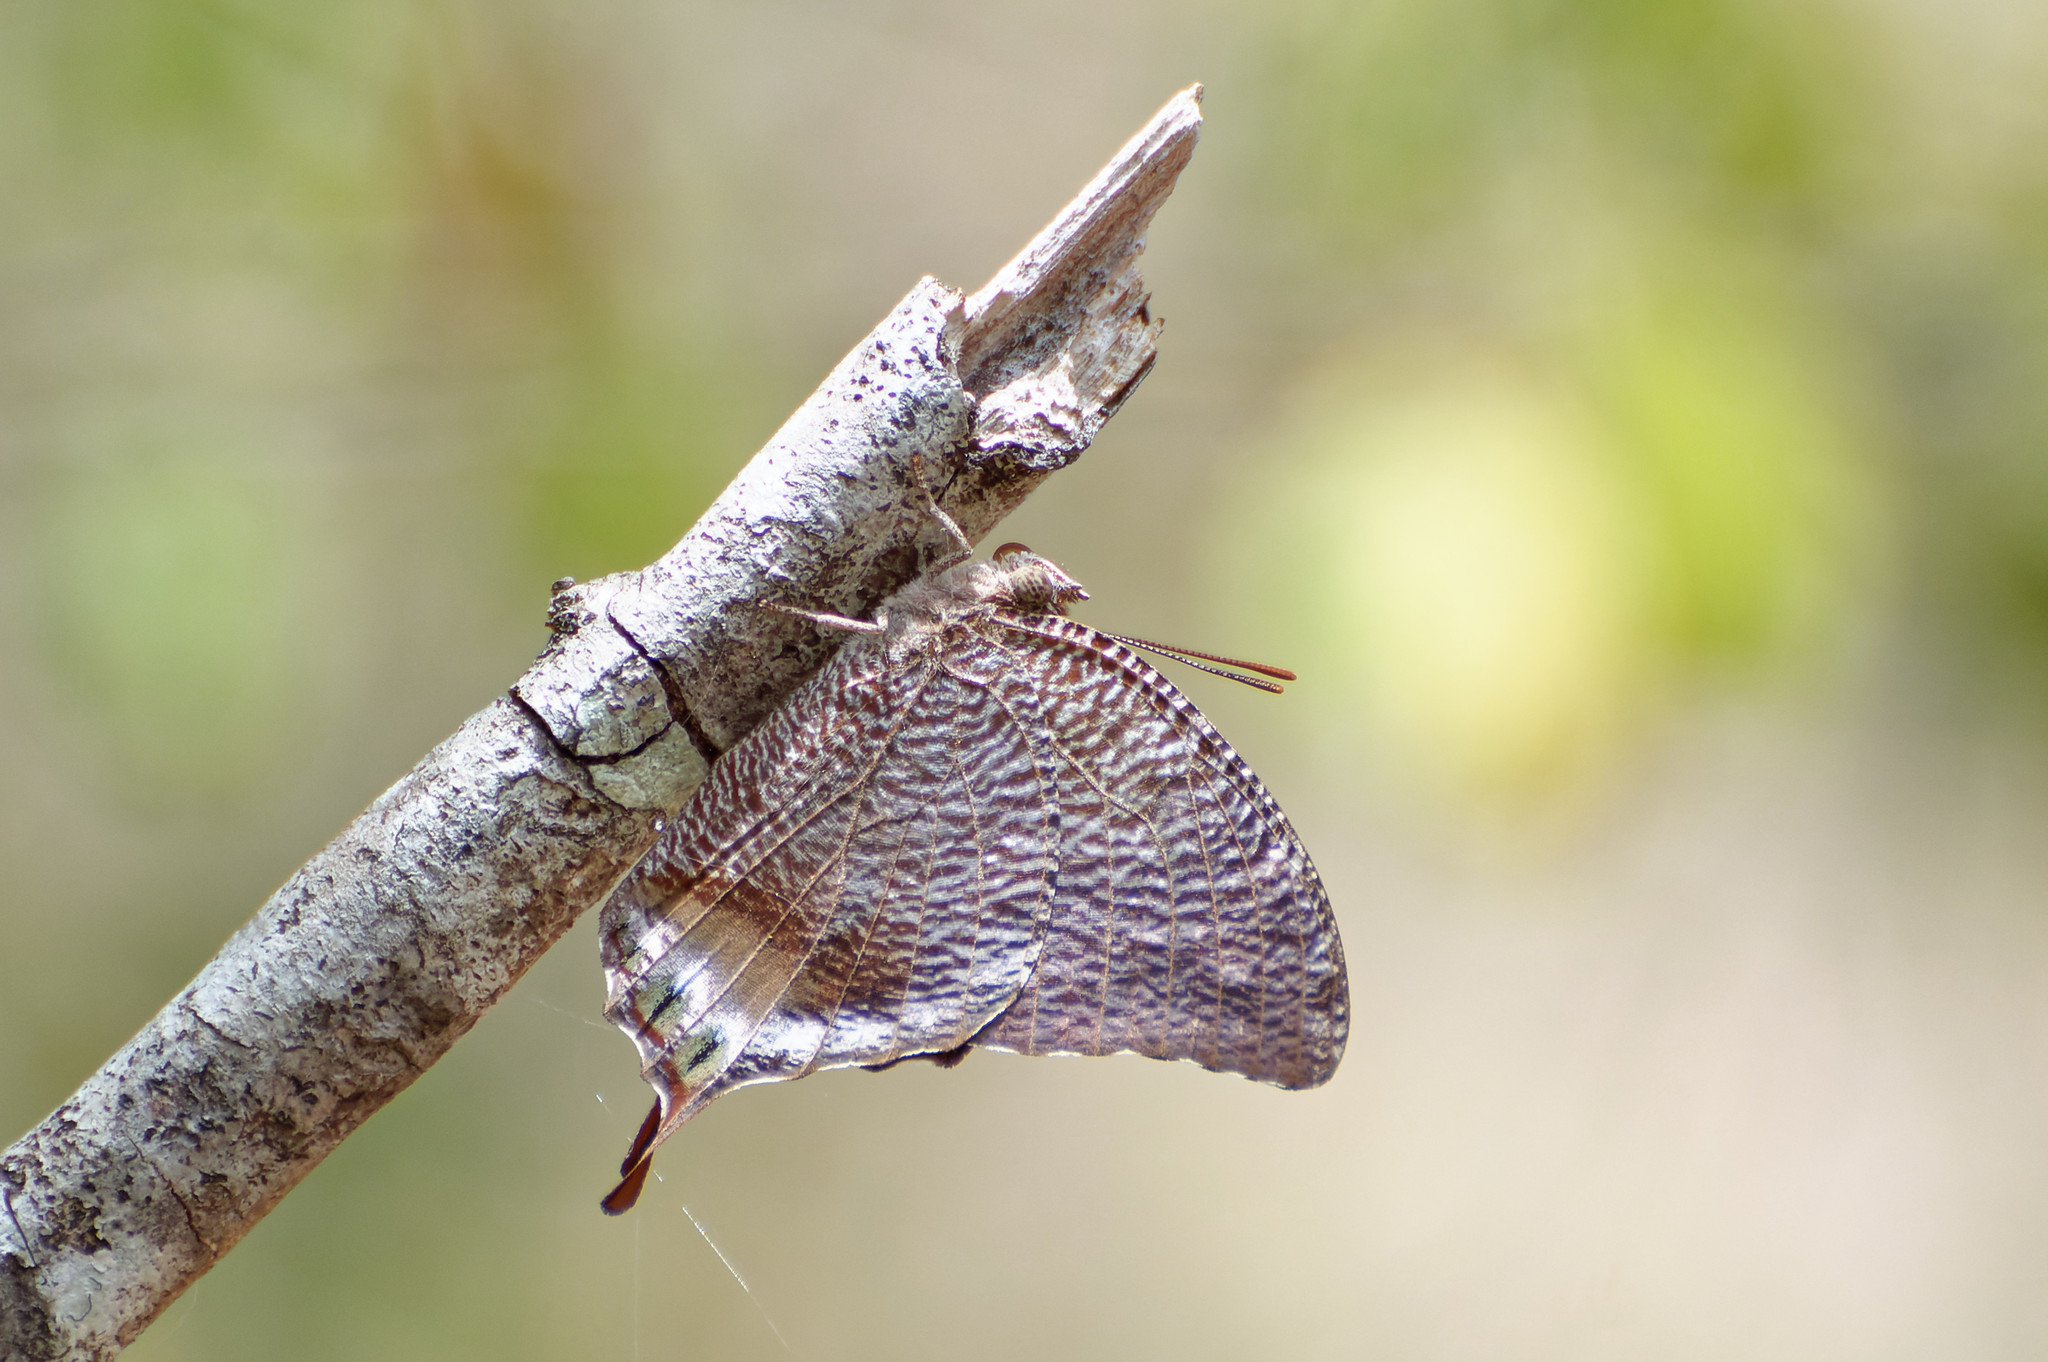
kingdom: Animalia
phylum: Arthropoda
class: Insecta
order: Lepidoptera
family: Nymphalidae
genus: Anaea
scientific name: Anaea verticordia
